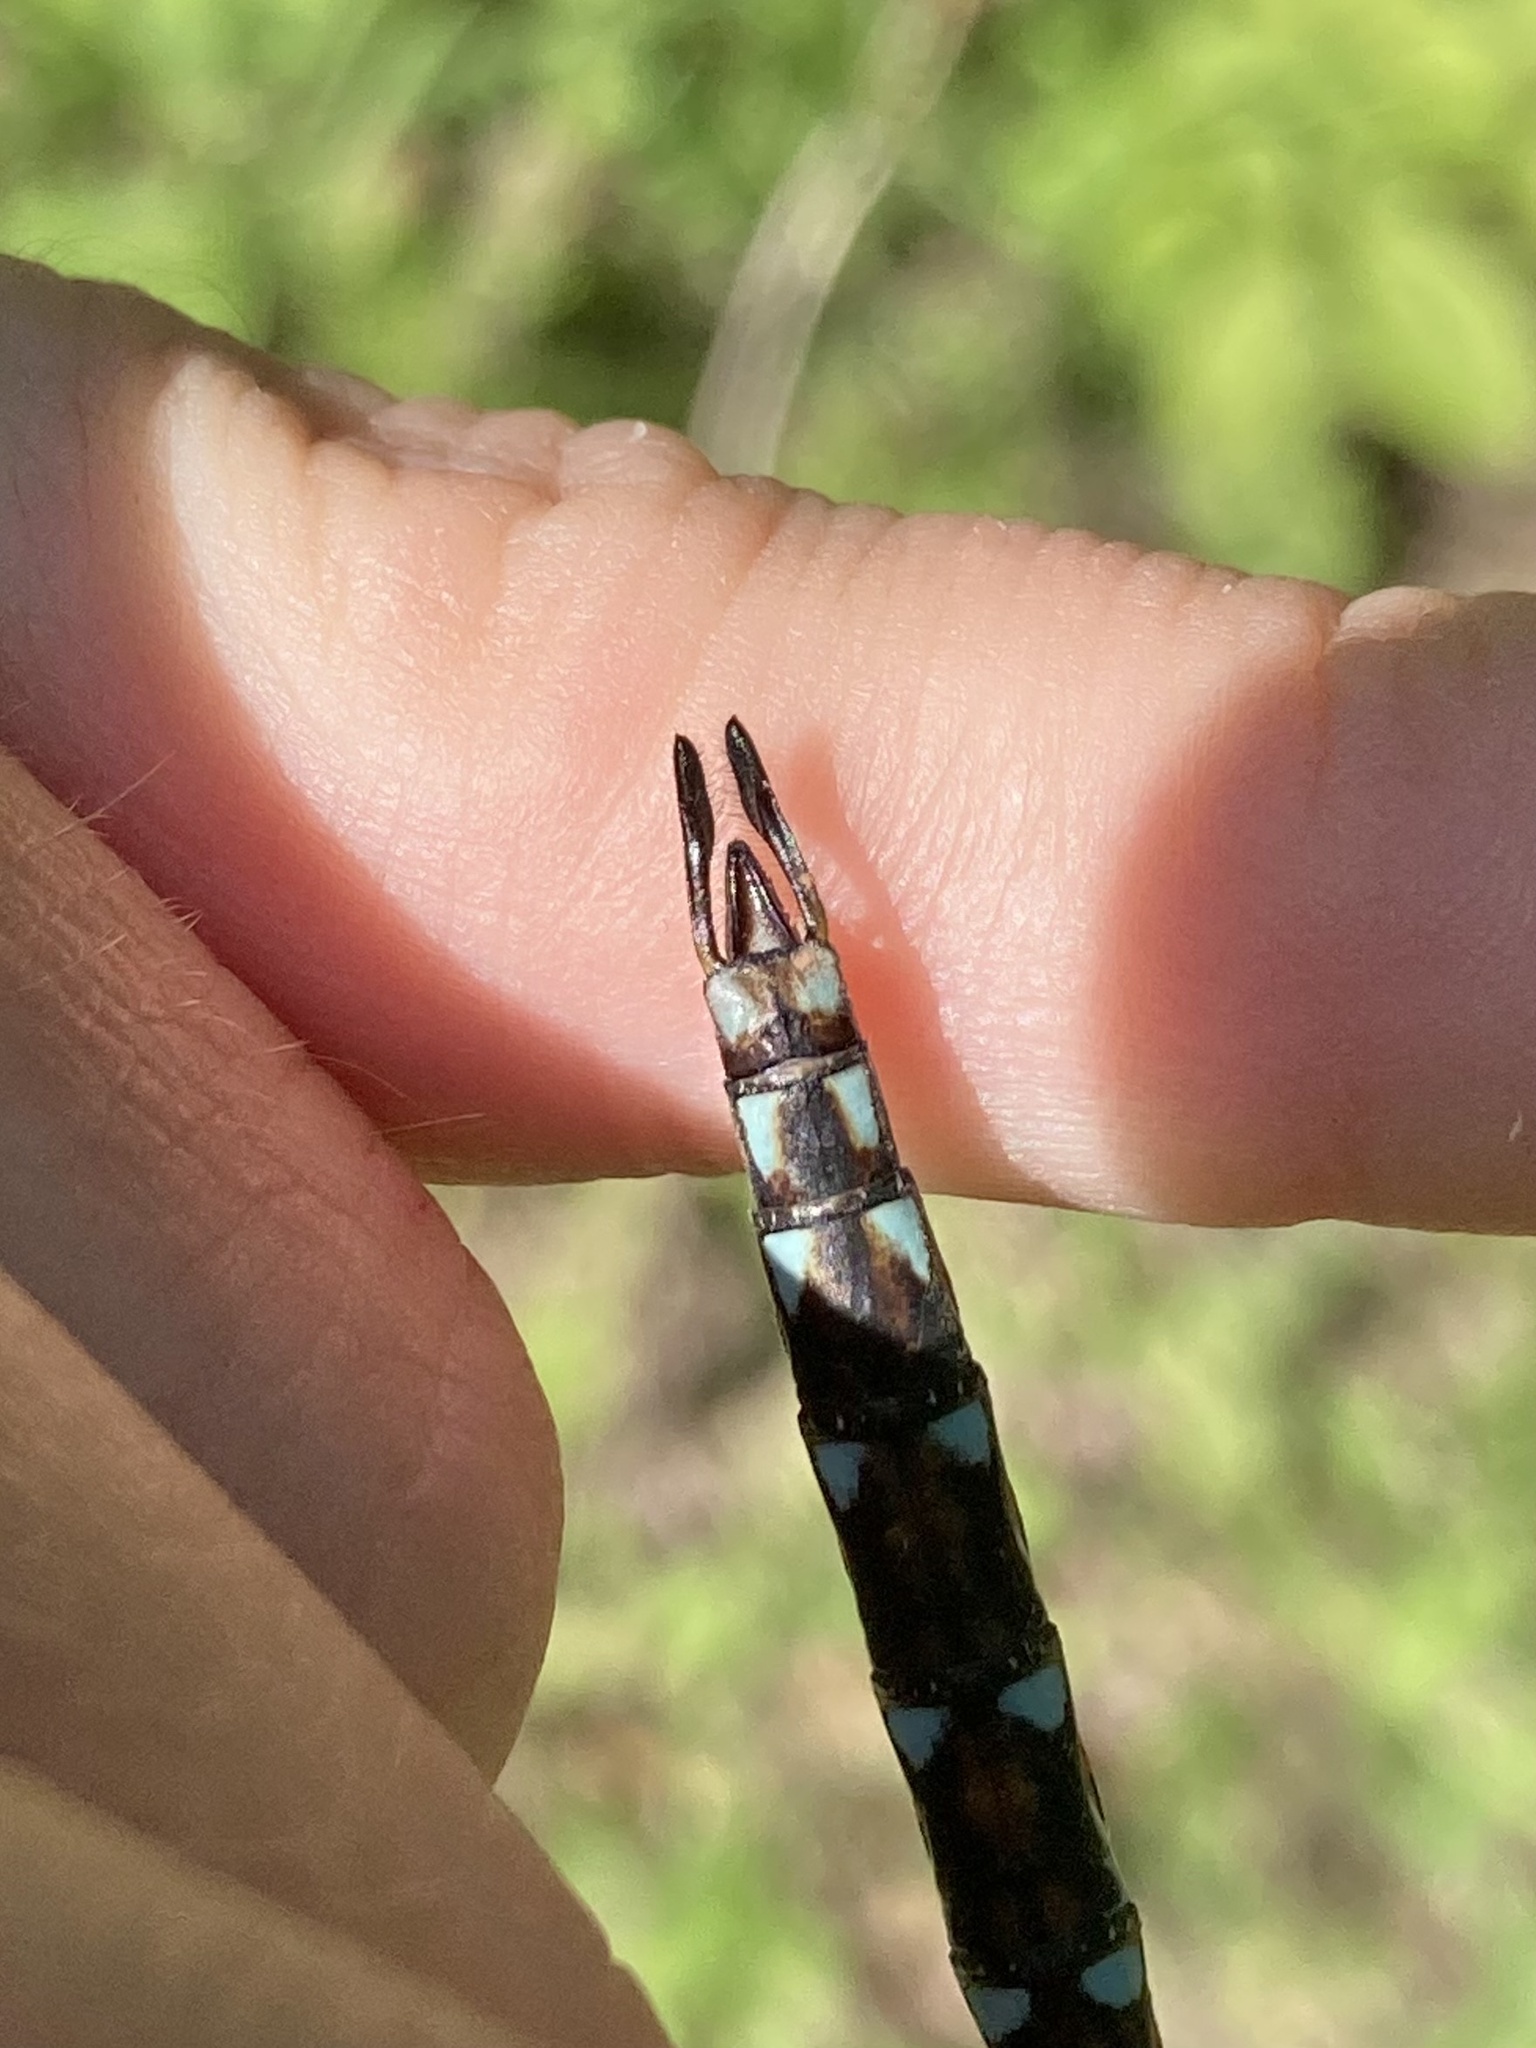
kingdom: Animalia
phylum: Arthropoda
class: Insecta
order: Odonata
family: Aeshnidae
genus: Basiaeschna
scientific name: Basiaeschna janata
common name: Springtime darner
